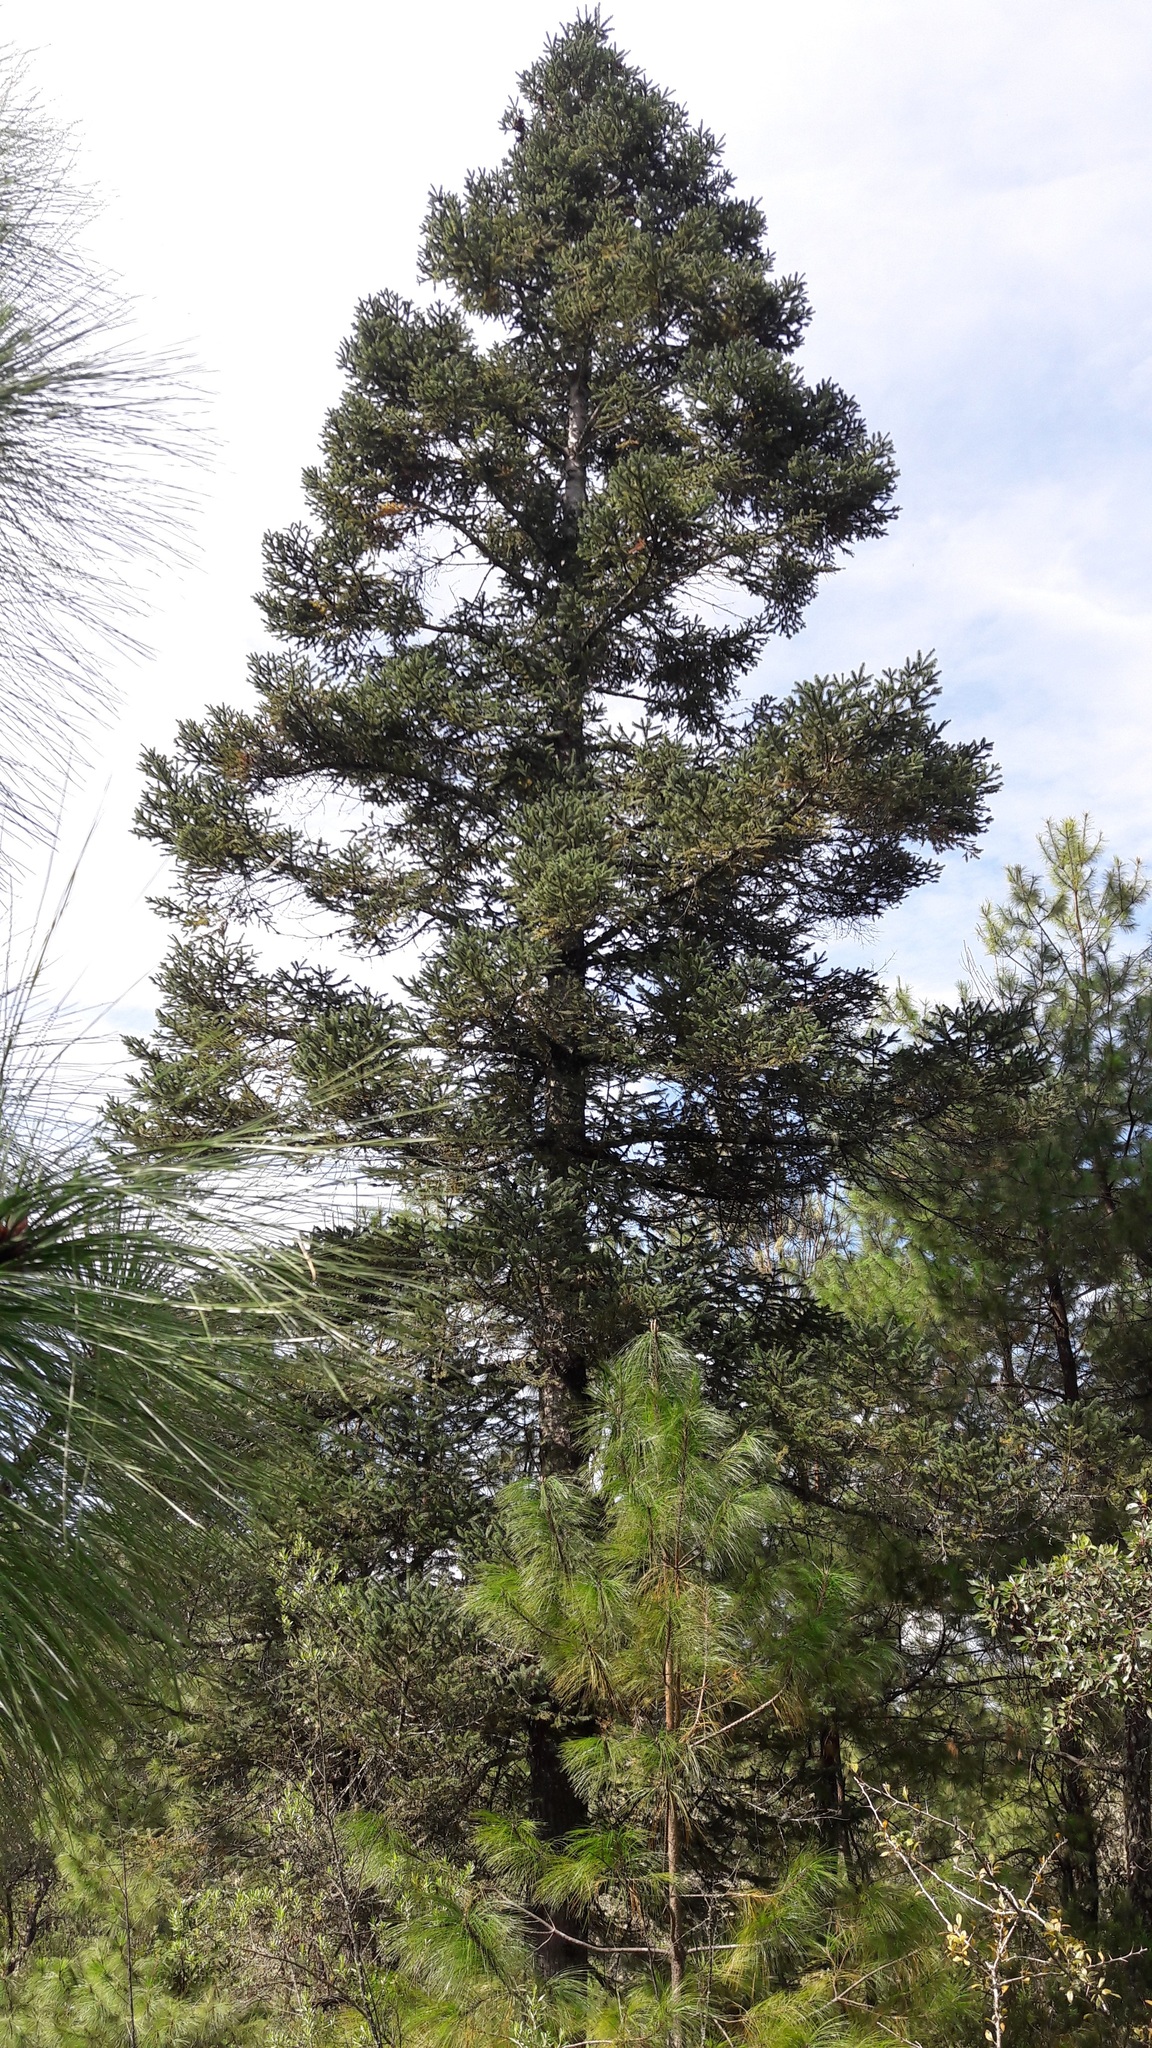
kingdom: Plantae
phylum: Tracheophyta
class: Pinopsida
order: Pinales
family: Pinaceae
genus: Abies
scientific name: Abies religiosa
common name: Sacred fir
